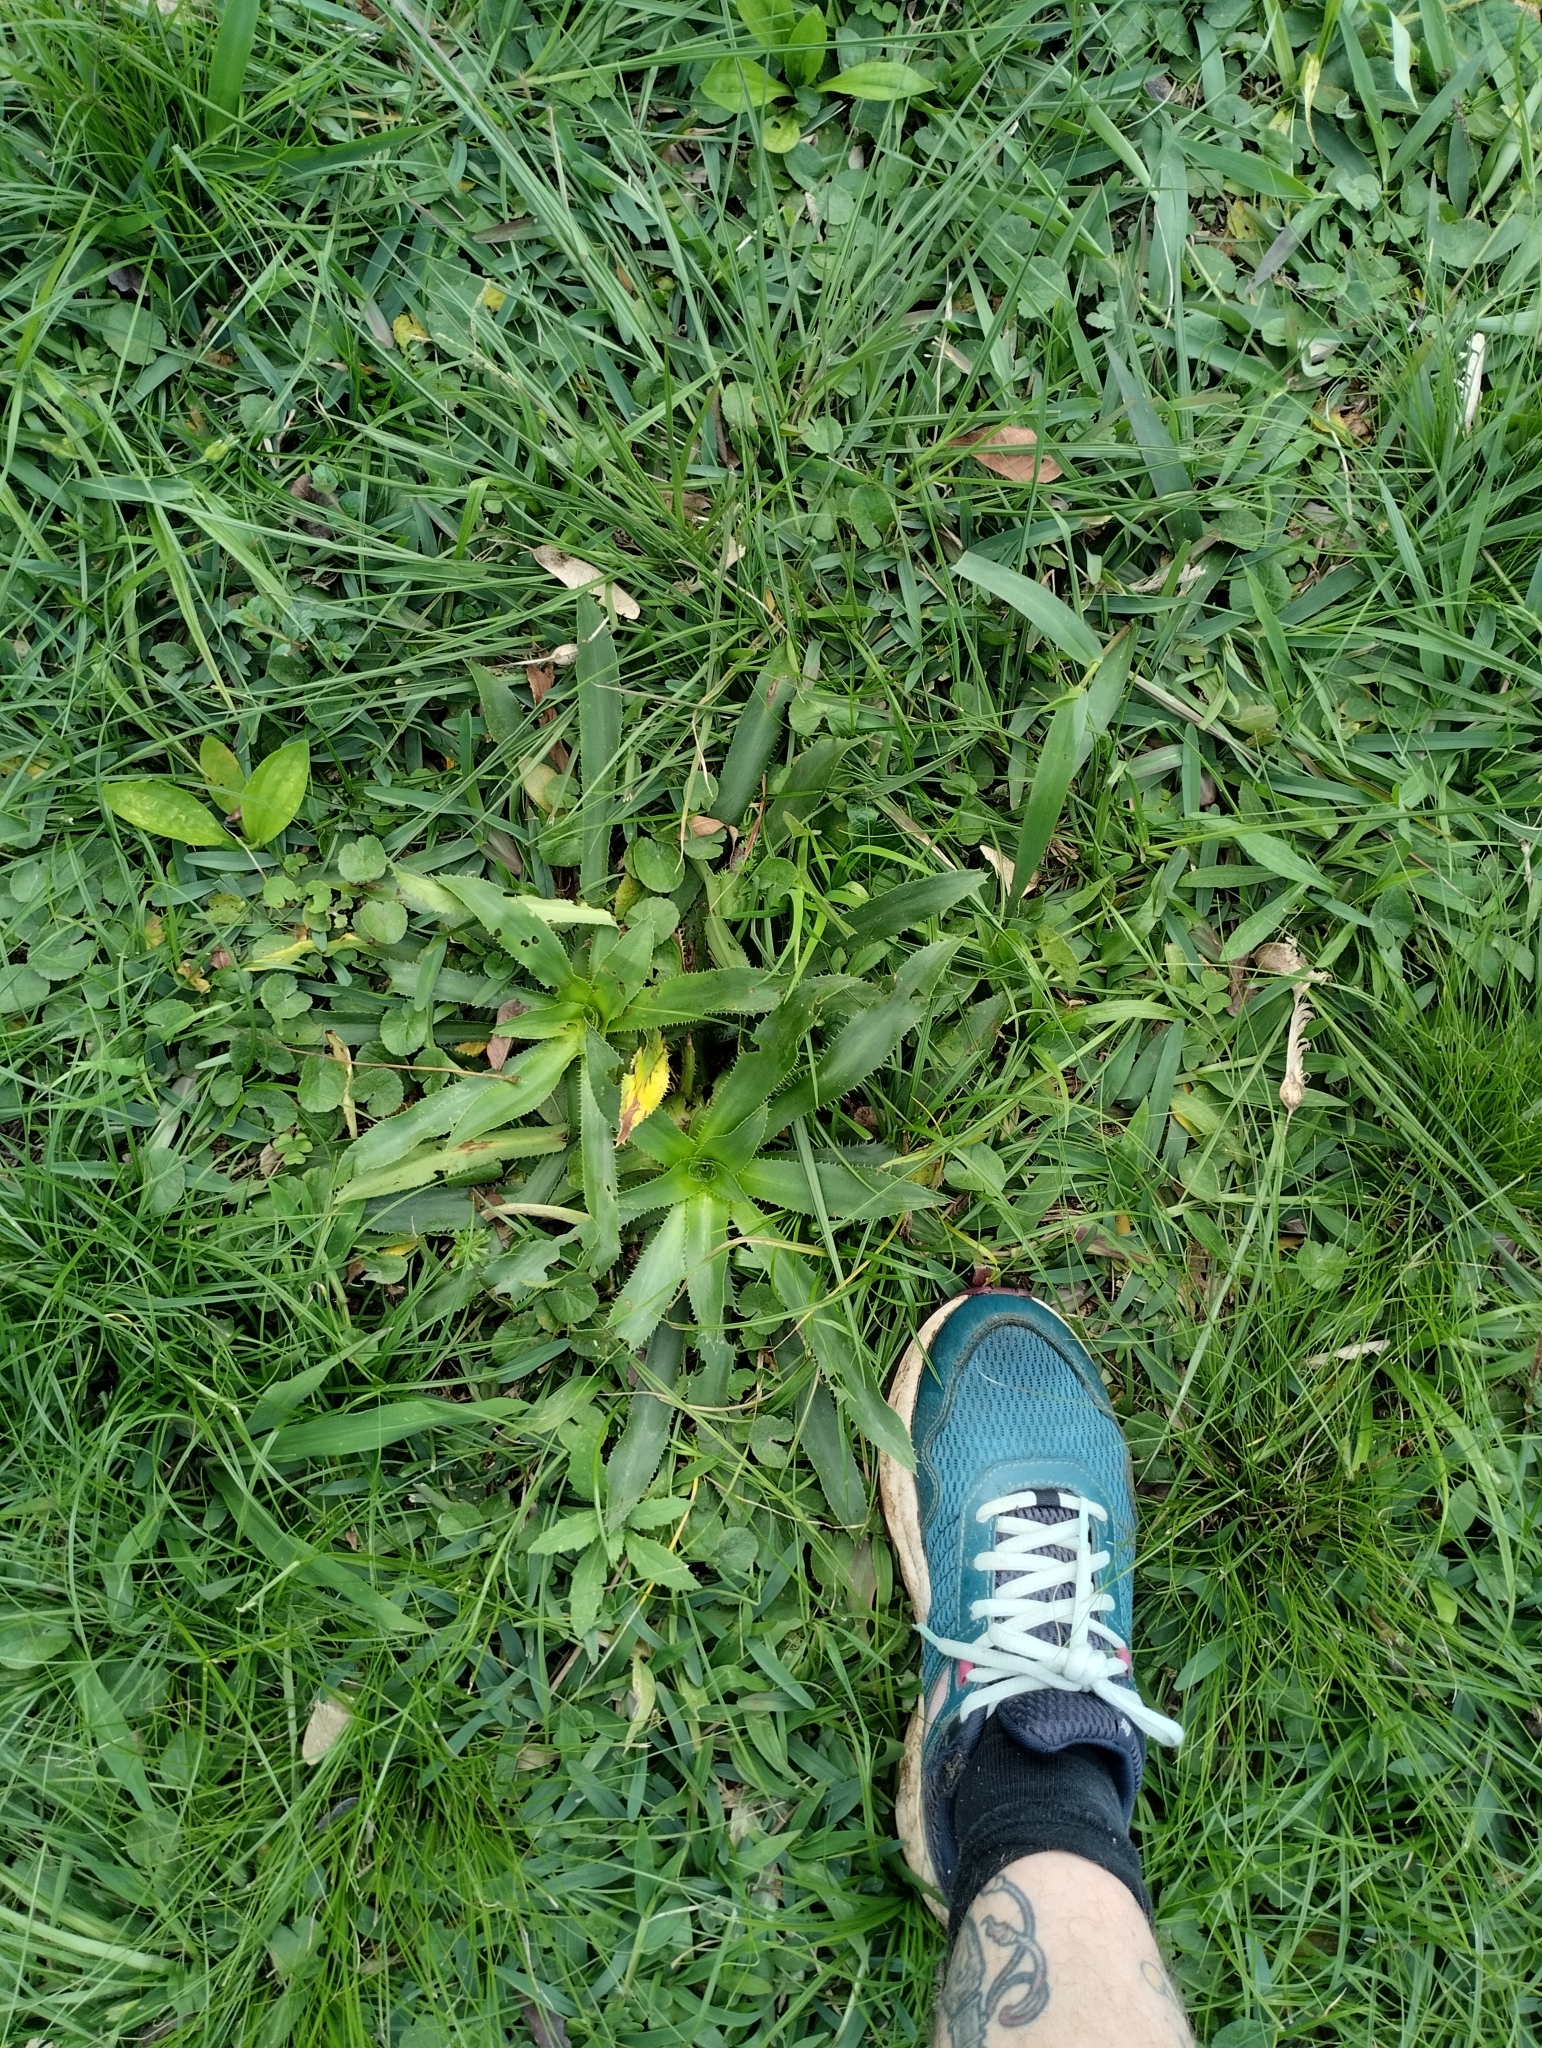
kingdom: Plantae
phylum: Tracheophyta
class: Magnoliopsida
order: Apiales
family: Apiaceae
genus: Eryngium
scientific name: Eryngium elegans
